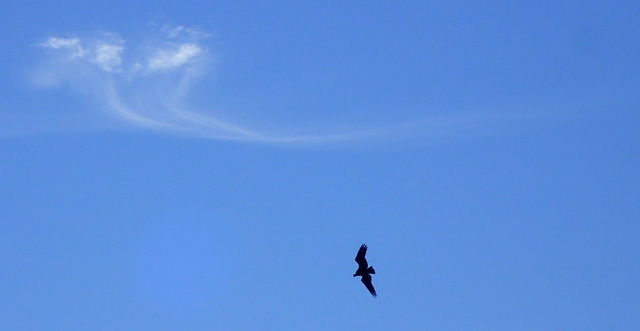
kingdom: Animalia
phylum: Chordata
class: Aves
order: Accipitriformes
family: Accipitridae
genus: Haliaeetus
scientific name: Haliaeetus leucocephalus
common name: Bald eagle
